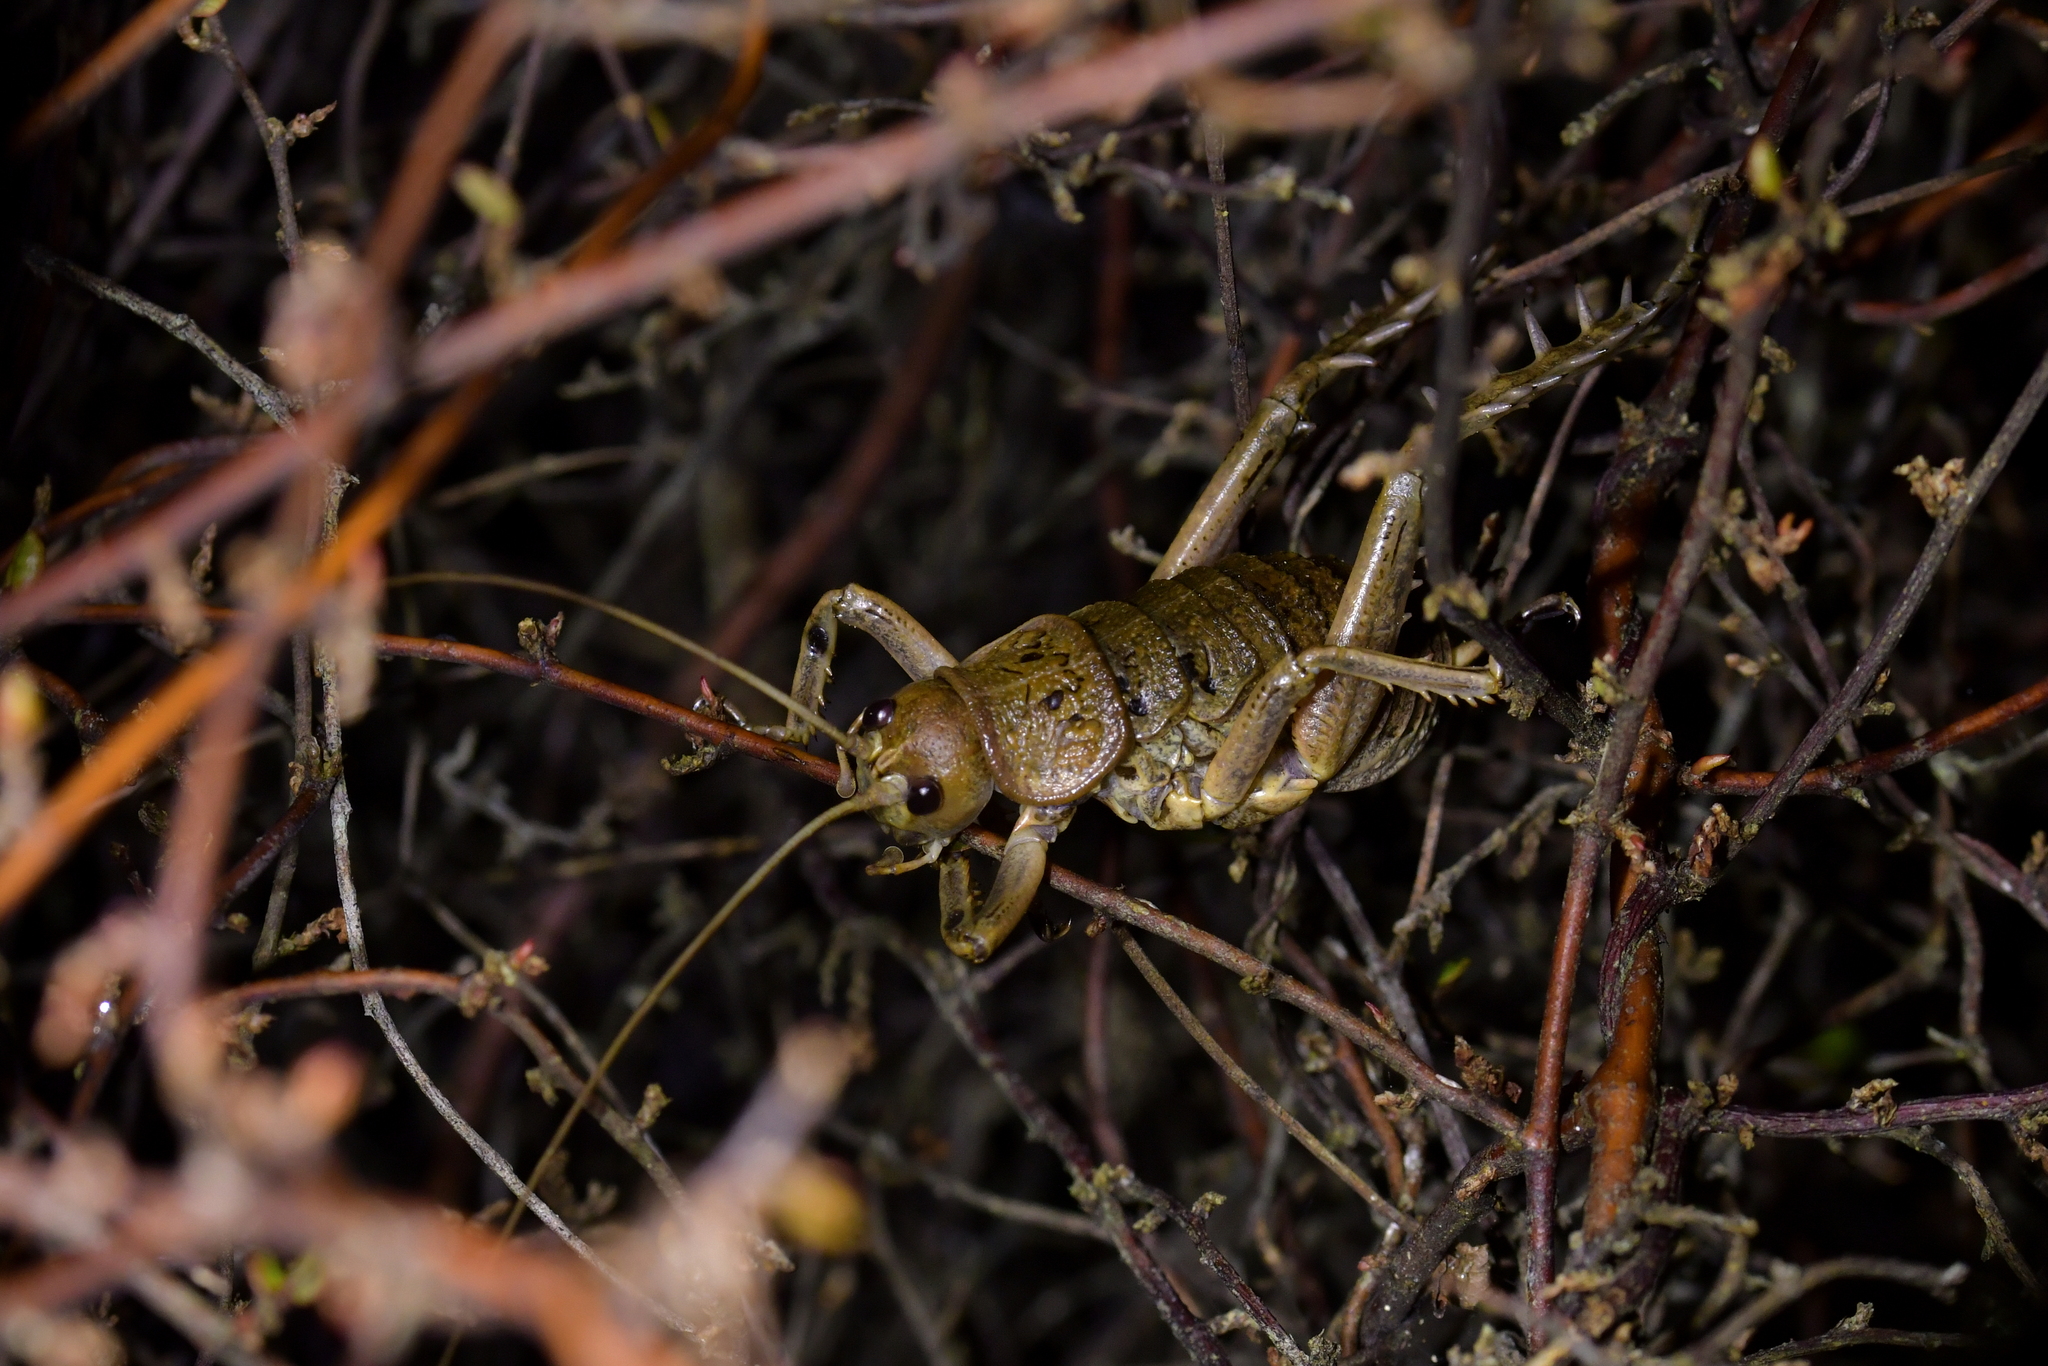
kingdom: Animalia
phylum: Arthropoda
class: Insecta
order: Orthoptera
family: Anostostomatidae
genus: Deinacrida
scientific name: Deinacrida rugosa
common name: Stephens island weta
